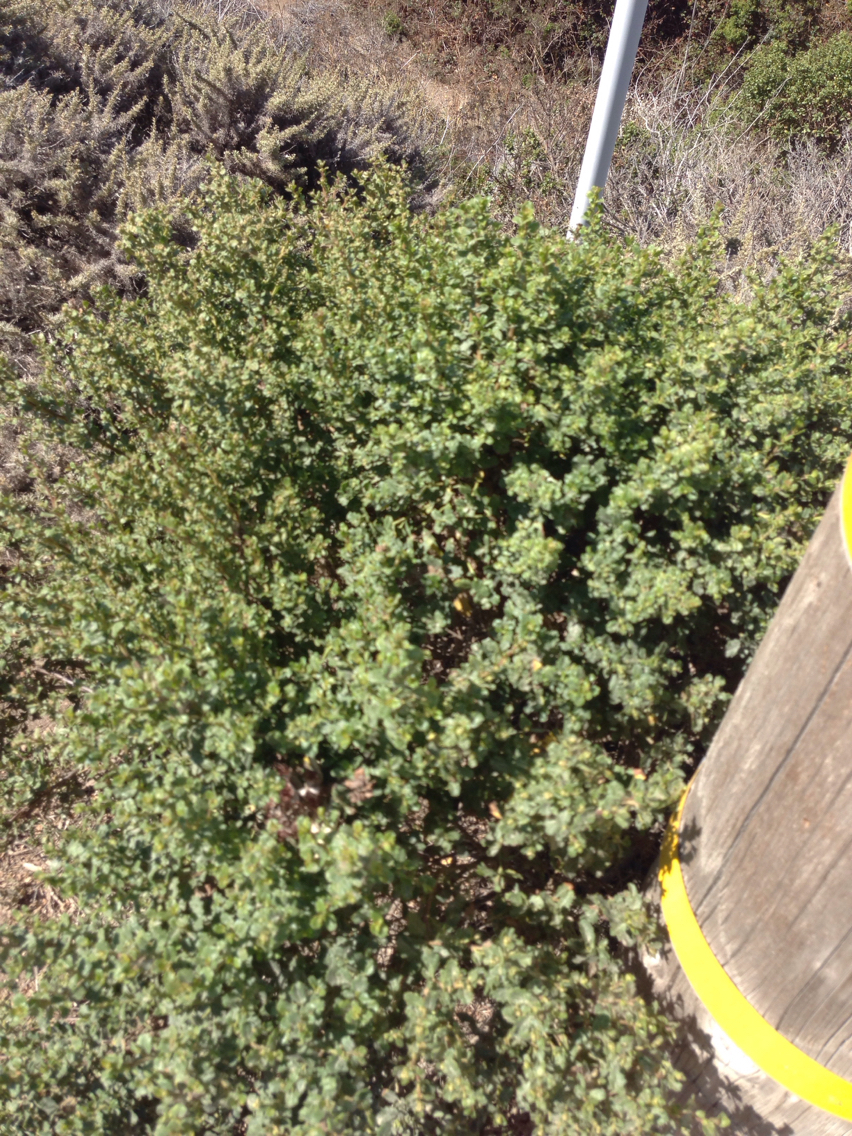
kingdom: Plantae
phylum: Tracheophyta
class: Magnoliopsida
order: Asterales
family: Asteraceae
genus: Baccharis
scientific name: Baccharis pilularis
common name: Coyotebrush
